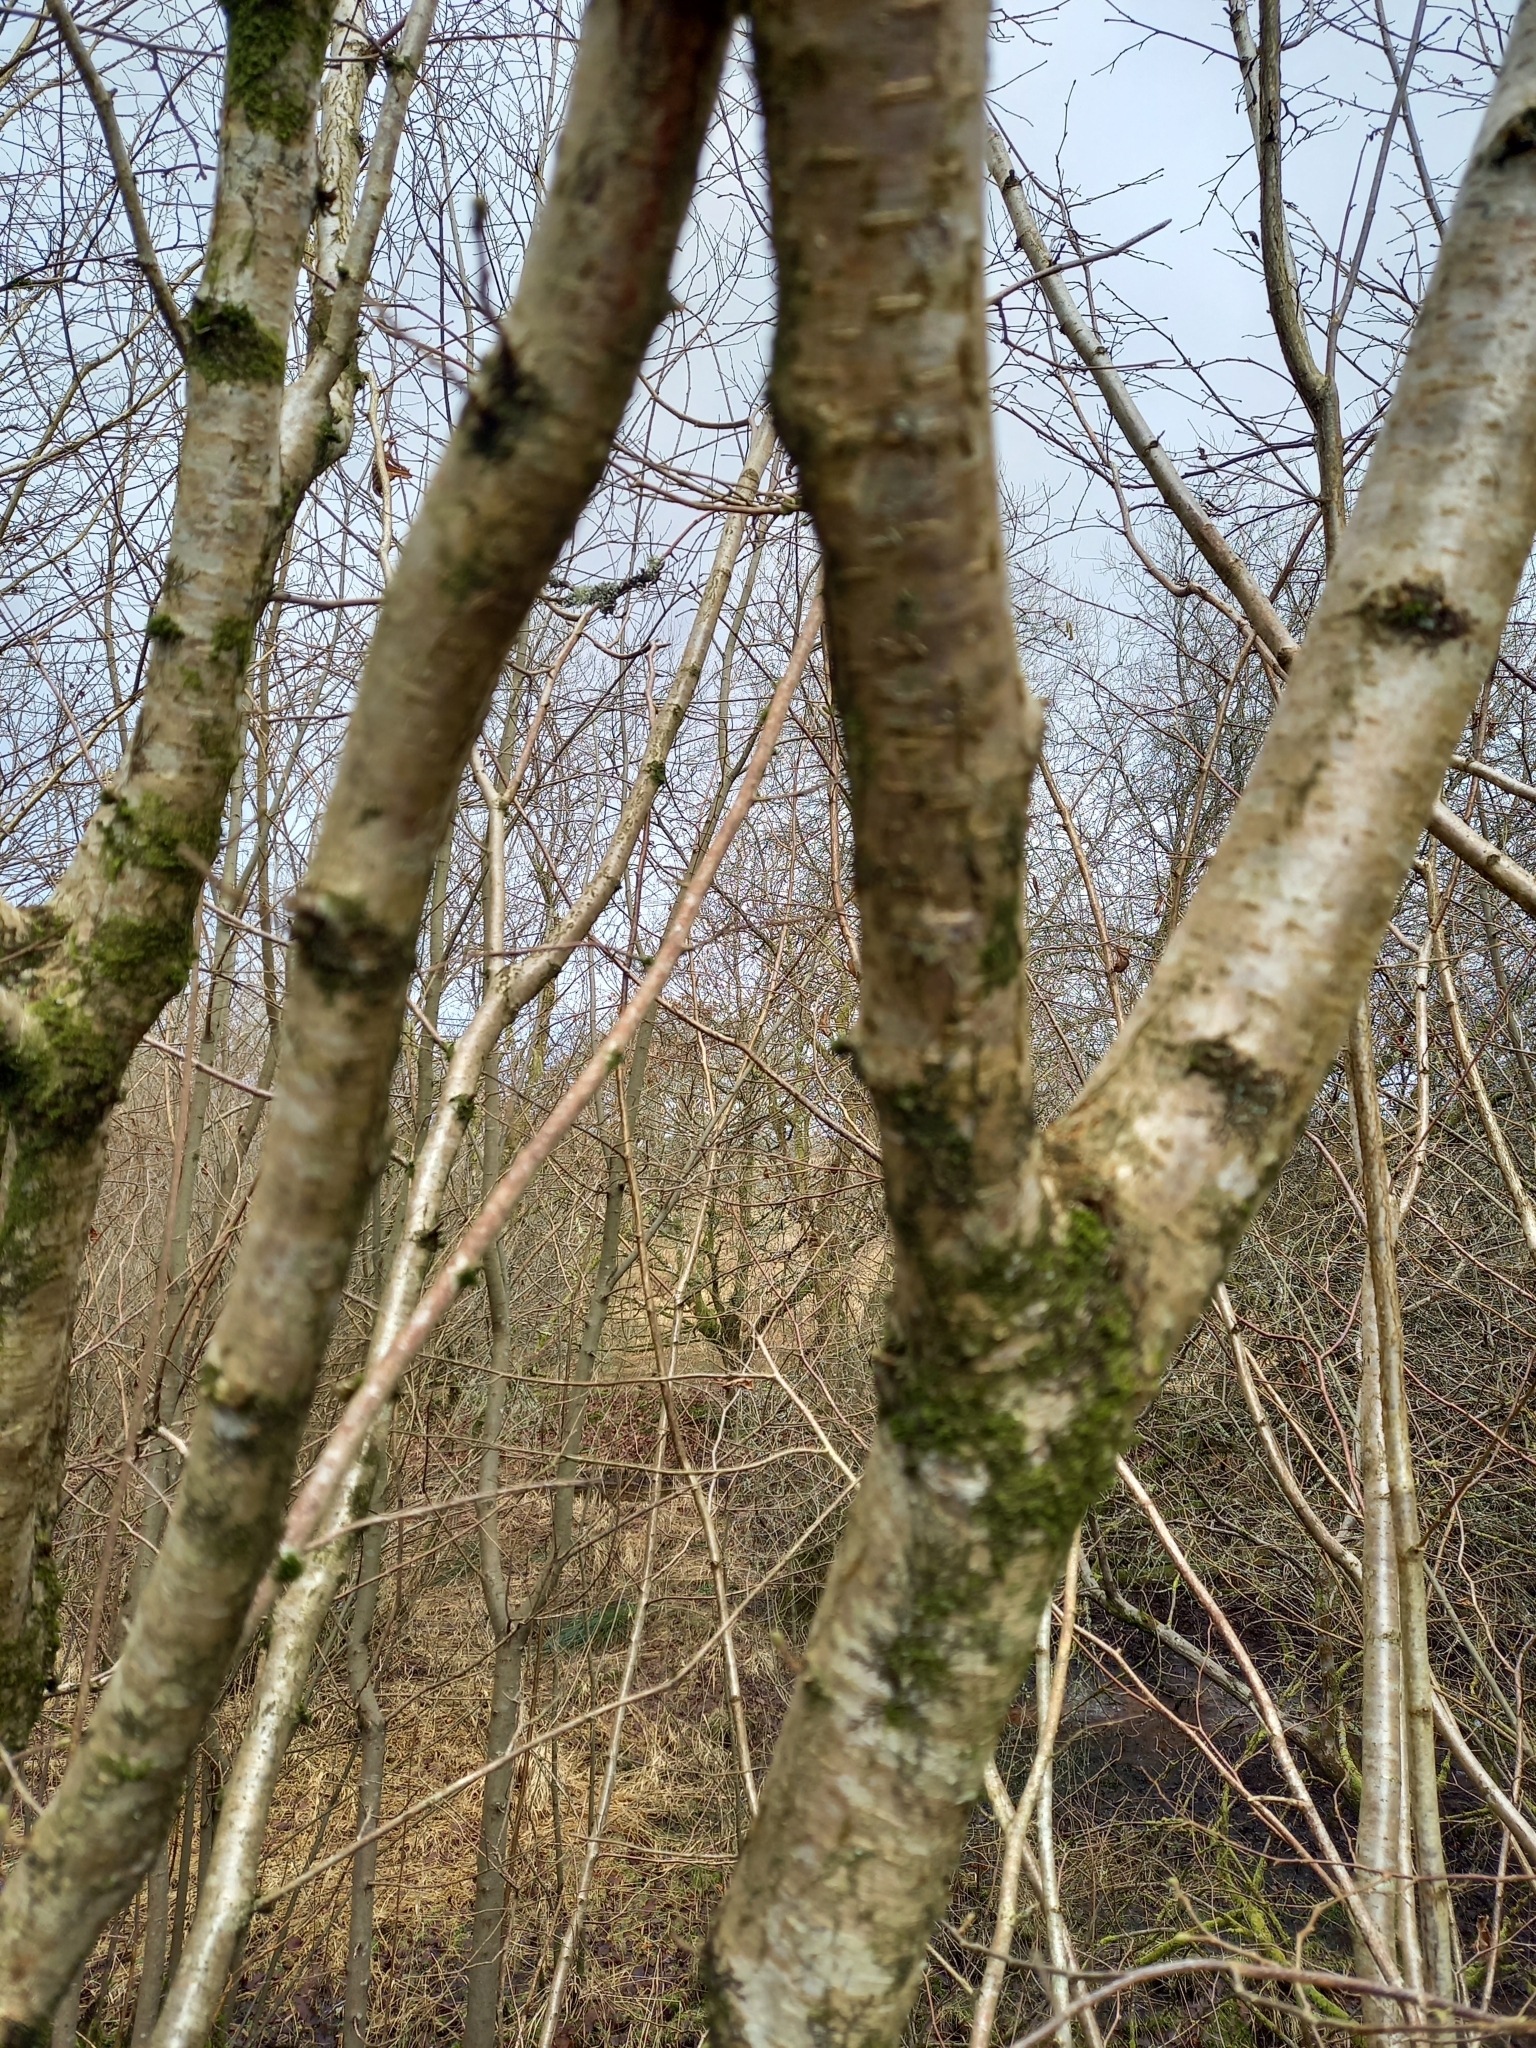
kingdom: Plantae
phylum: Tracheophyta
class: Magnoliopsida
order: Fagales
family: Betulaceae
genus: Corylus
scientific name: Corylus avellana
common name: European hazel
